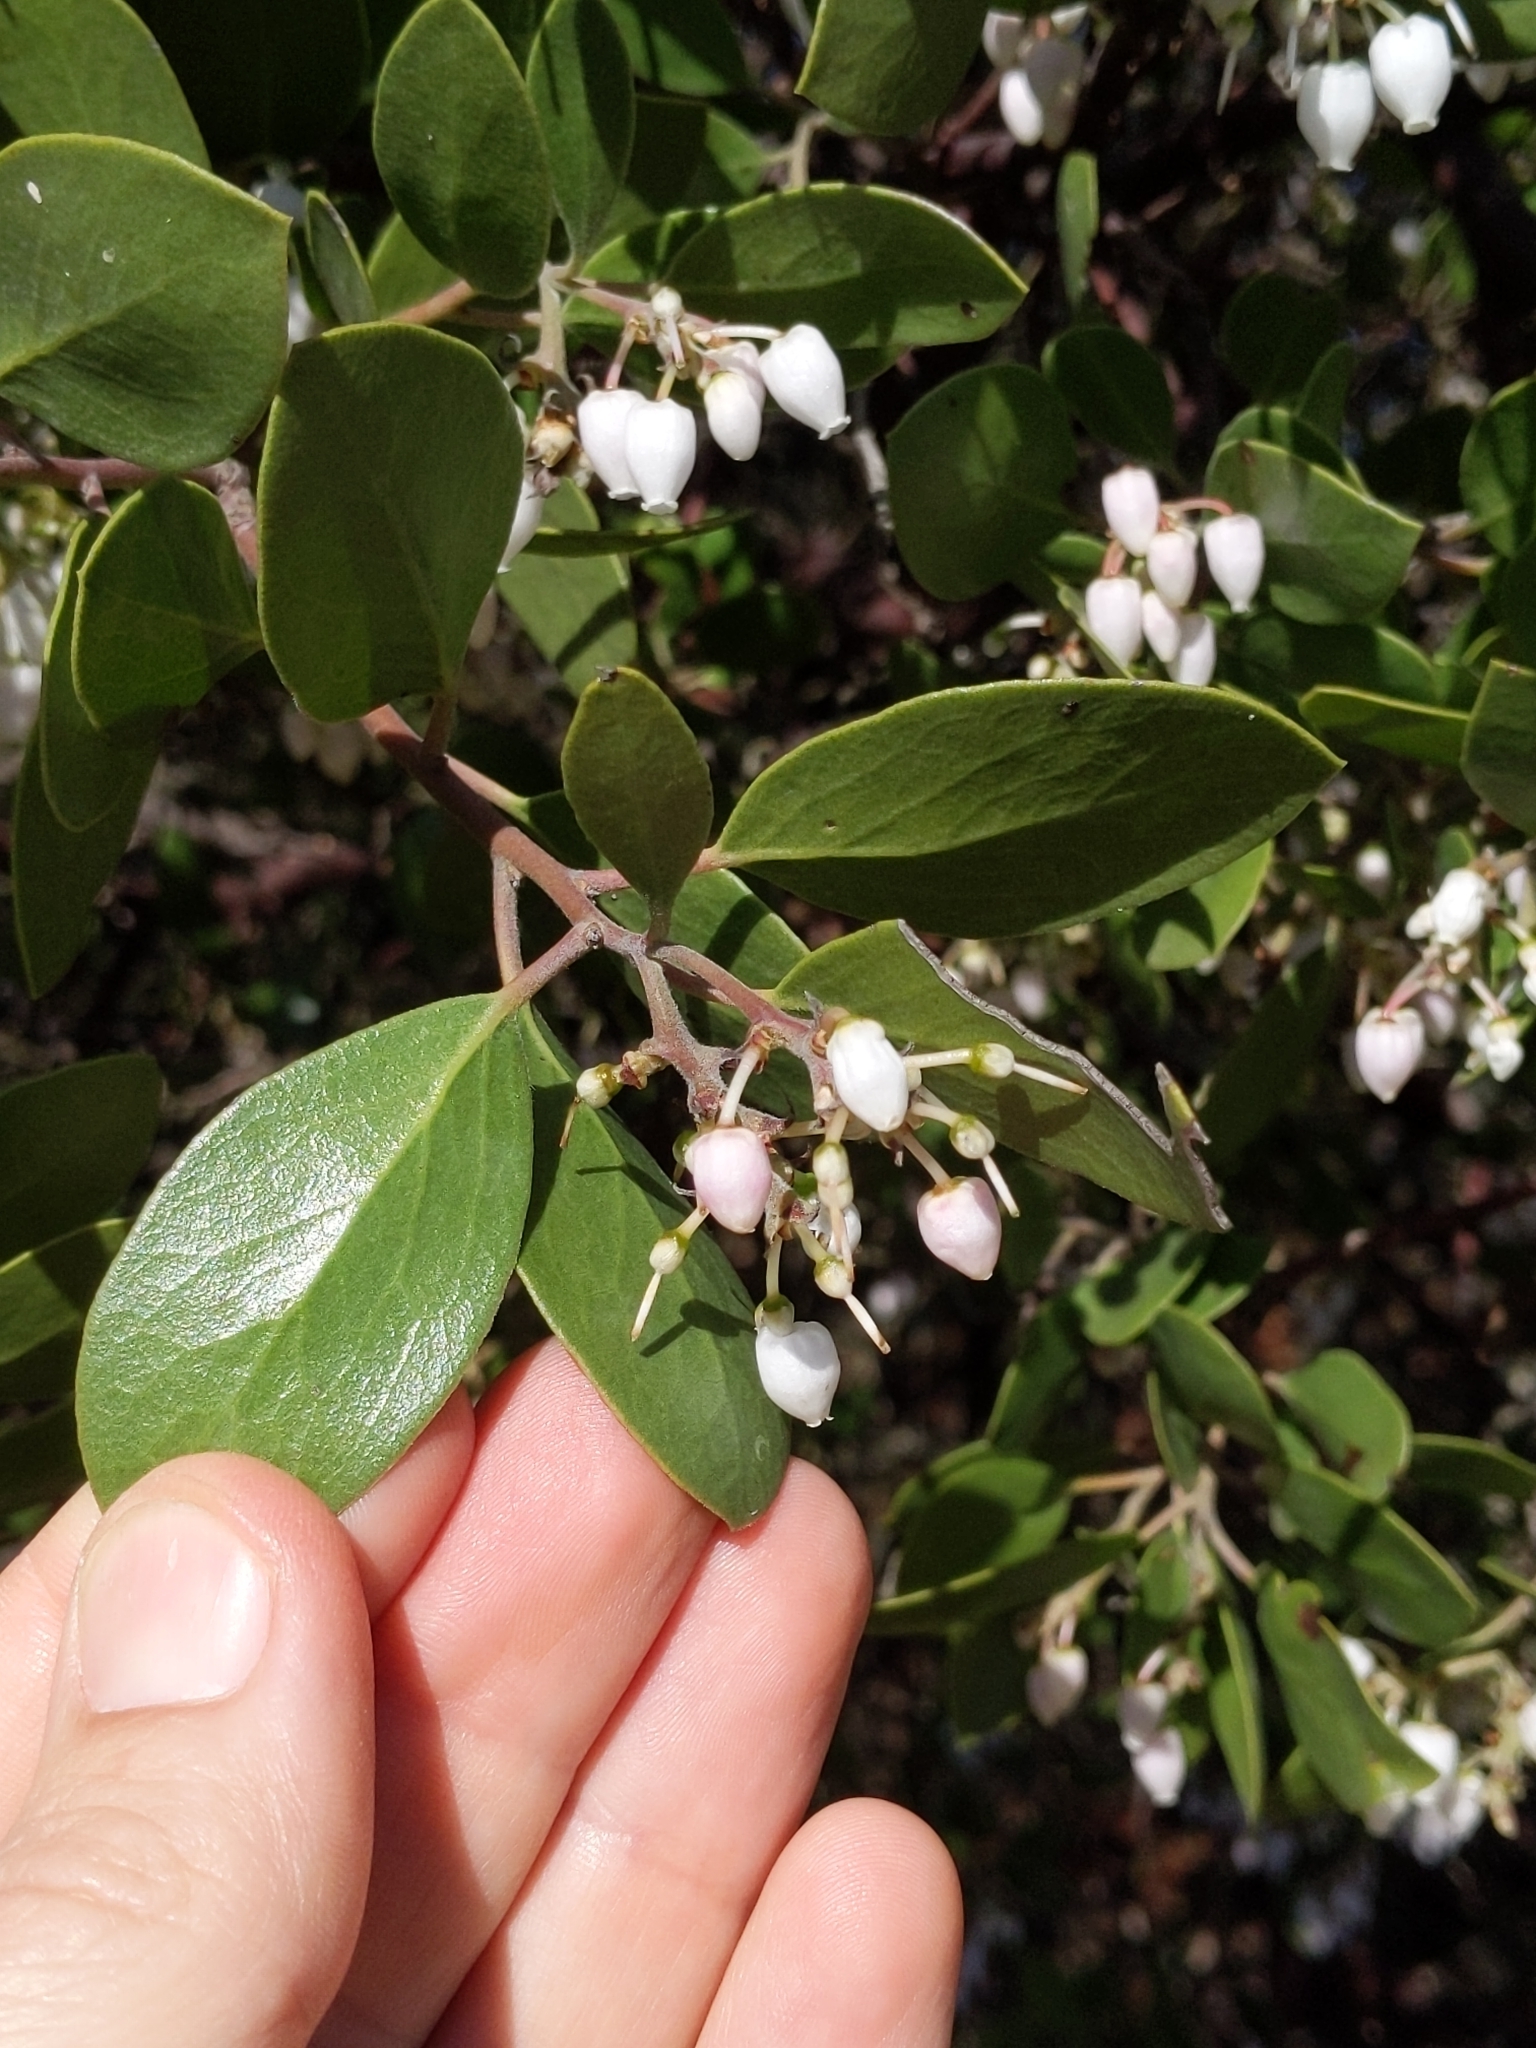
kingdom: Plantae
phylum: Tracheophyta
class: Magnoliopsida
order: Ericales
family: Ericaceae
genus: Arctostaphylos
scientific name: Arctostaphylos manzanita
